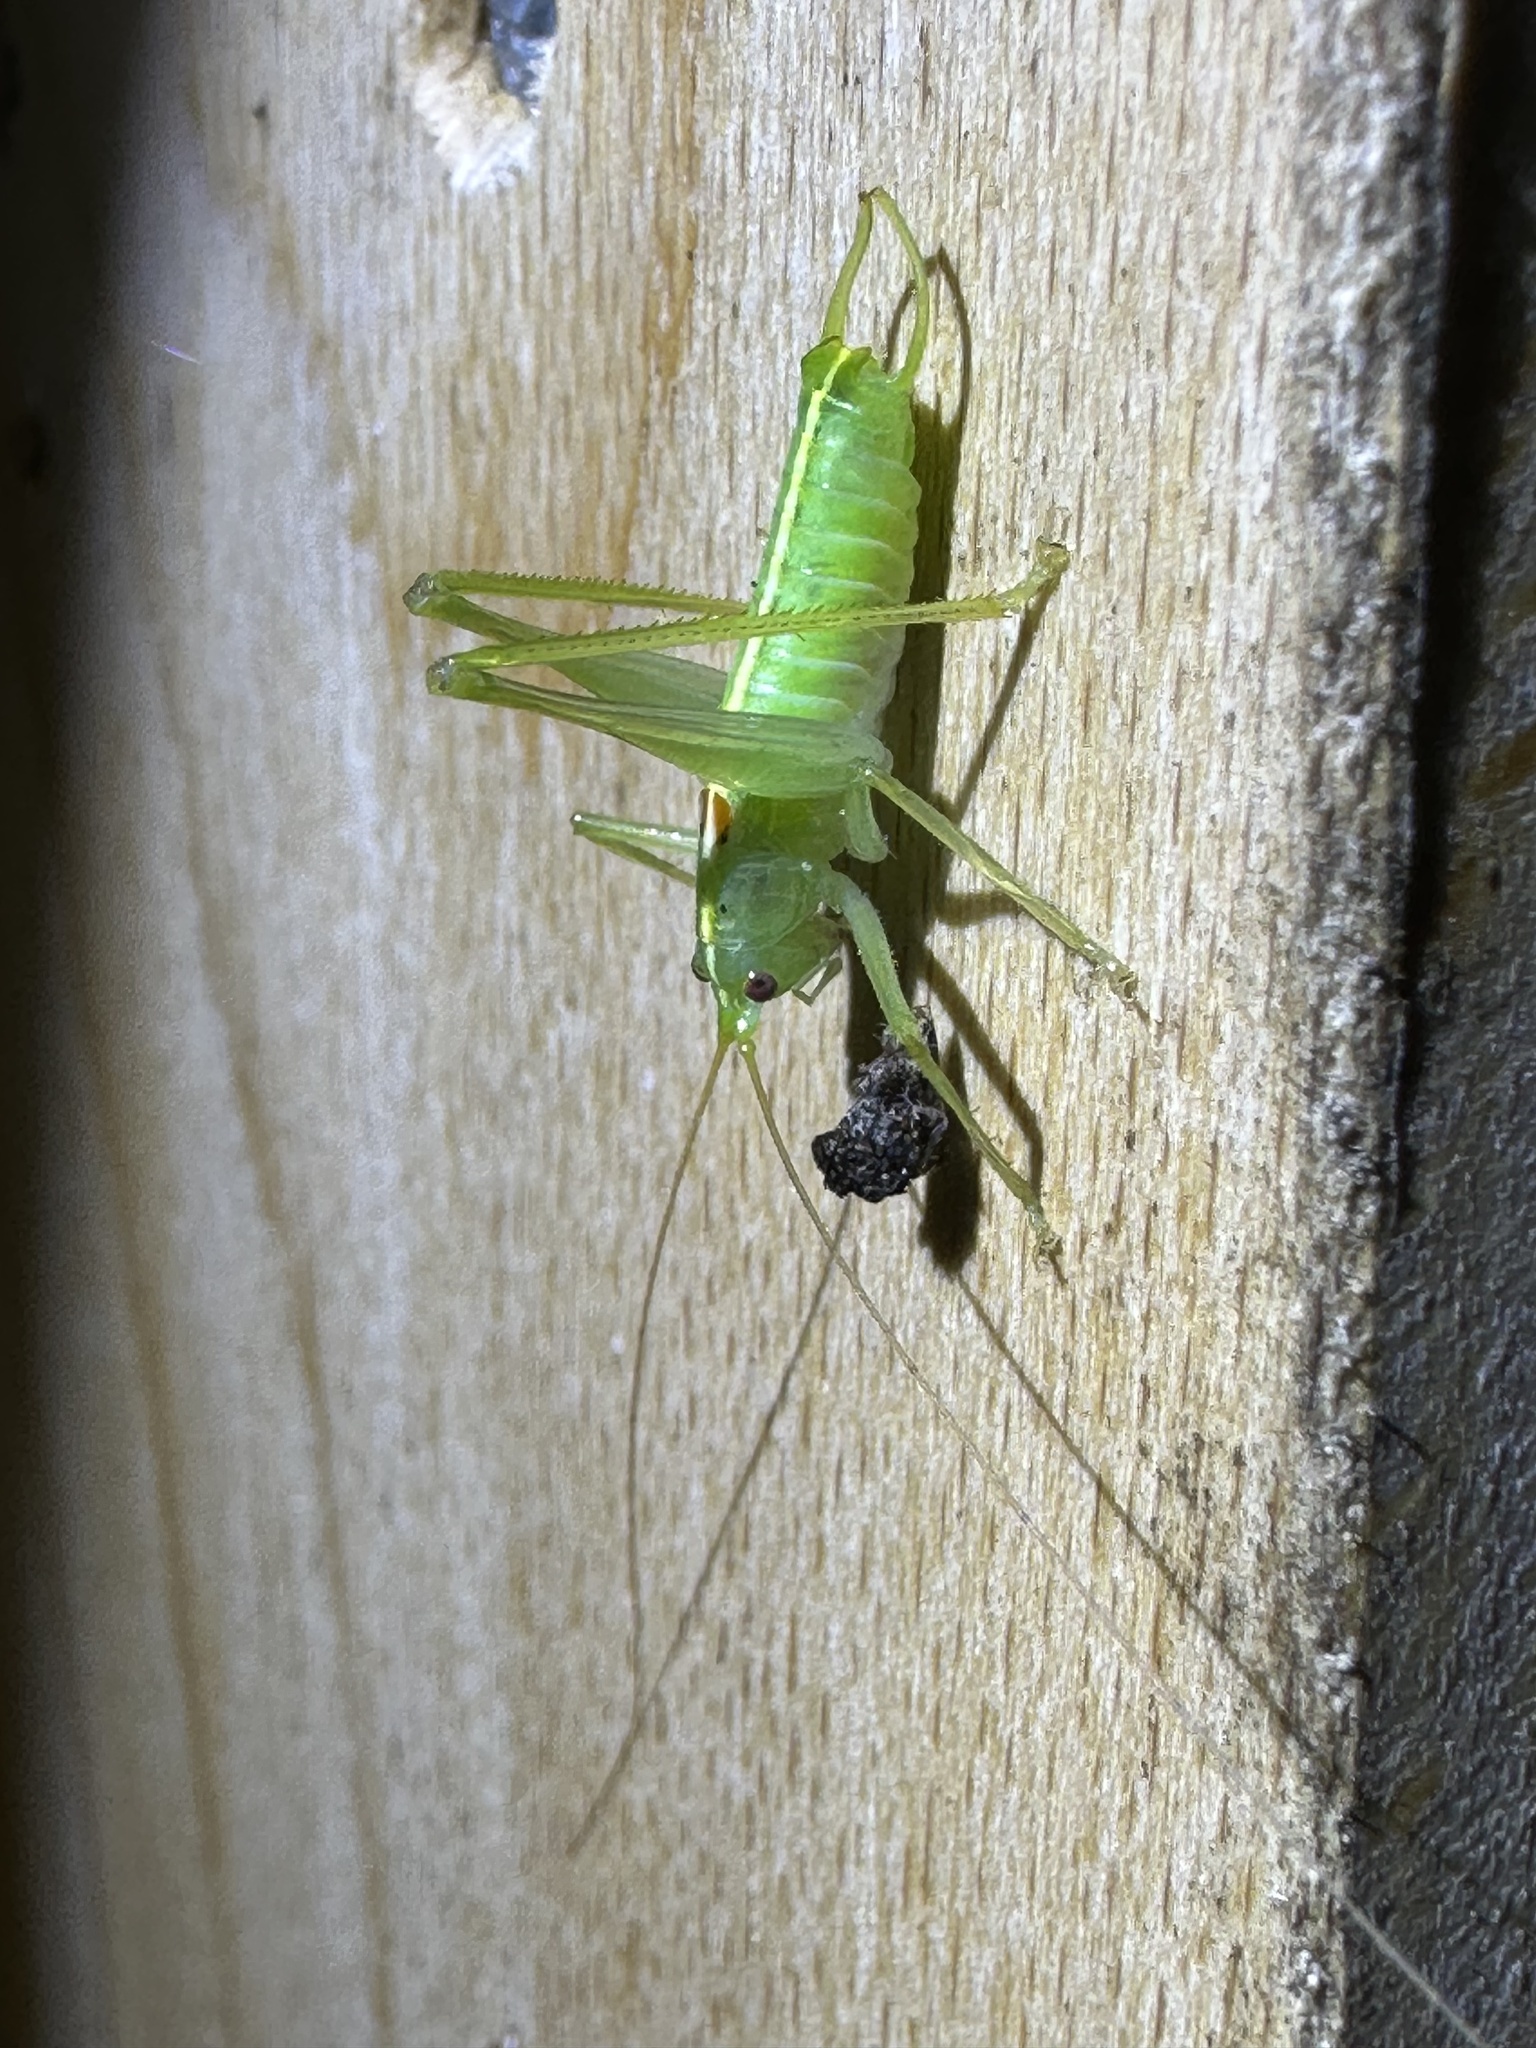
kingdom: Animalia
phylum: Arthropoda
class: Insecta
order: Orthoptera
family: Tettigoniidae
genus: Meconema
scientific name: Meconema meridionale
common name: Southern oak bush-cricket
